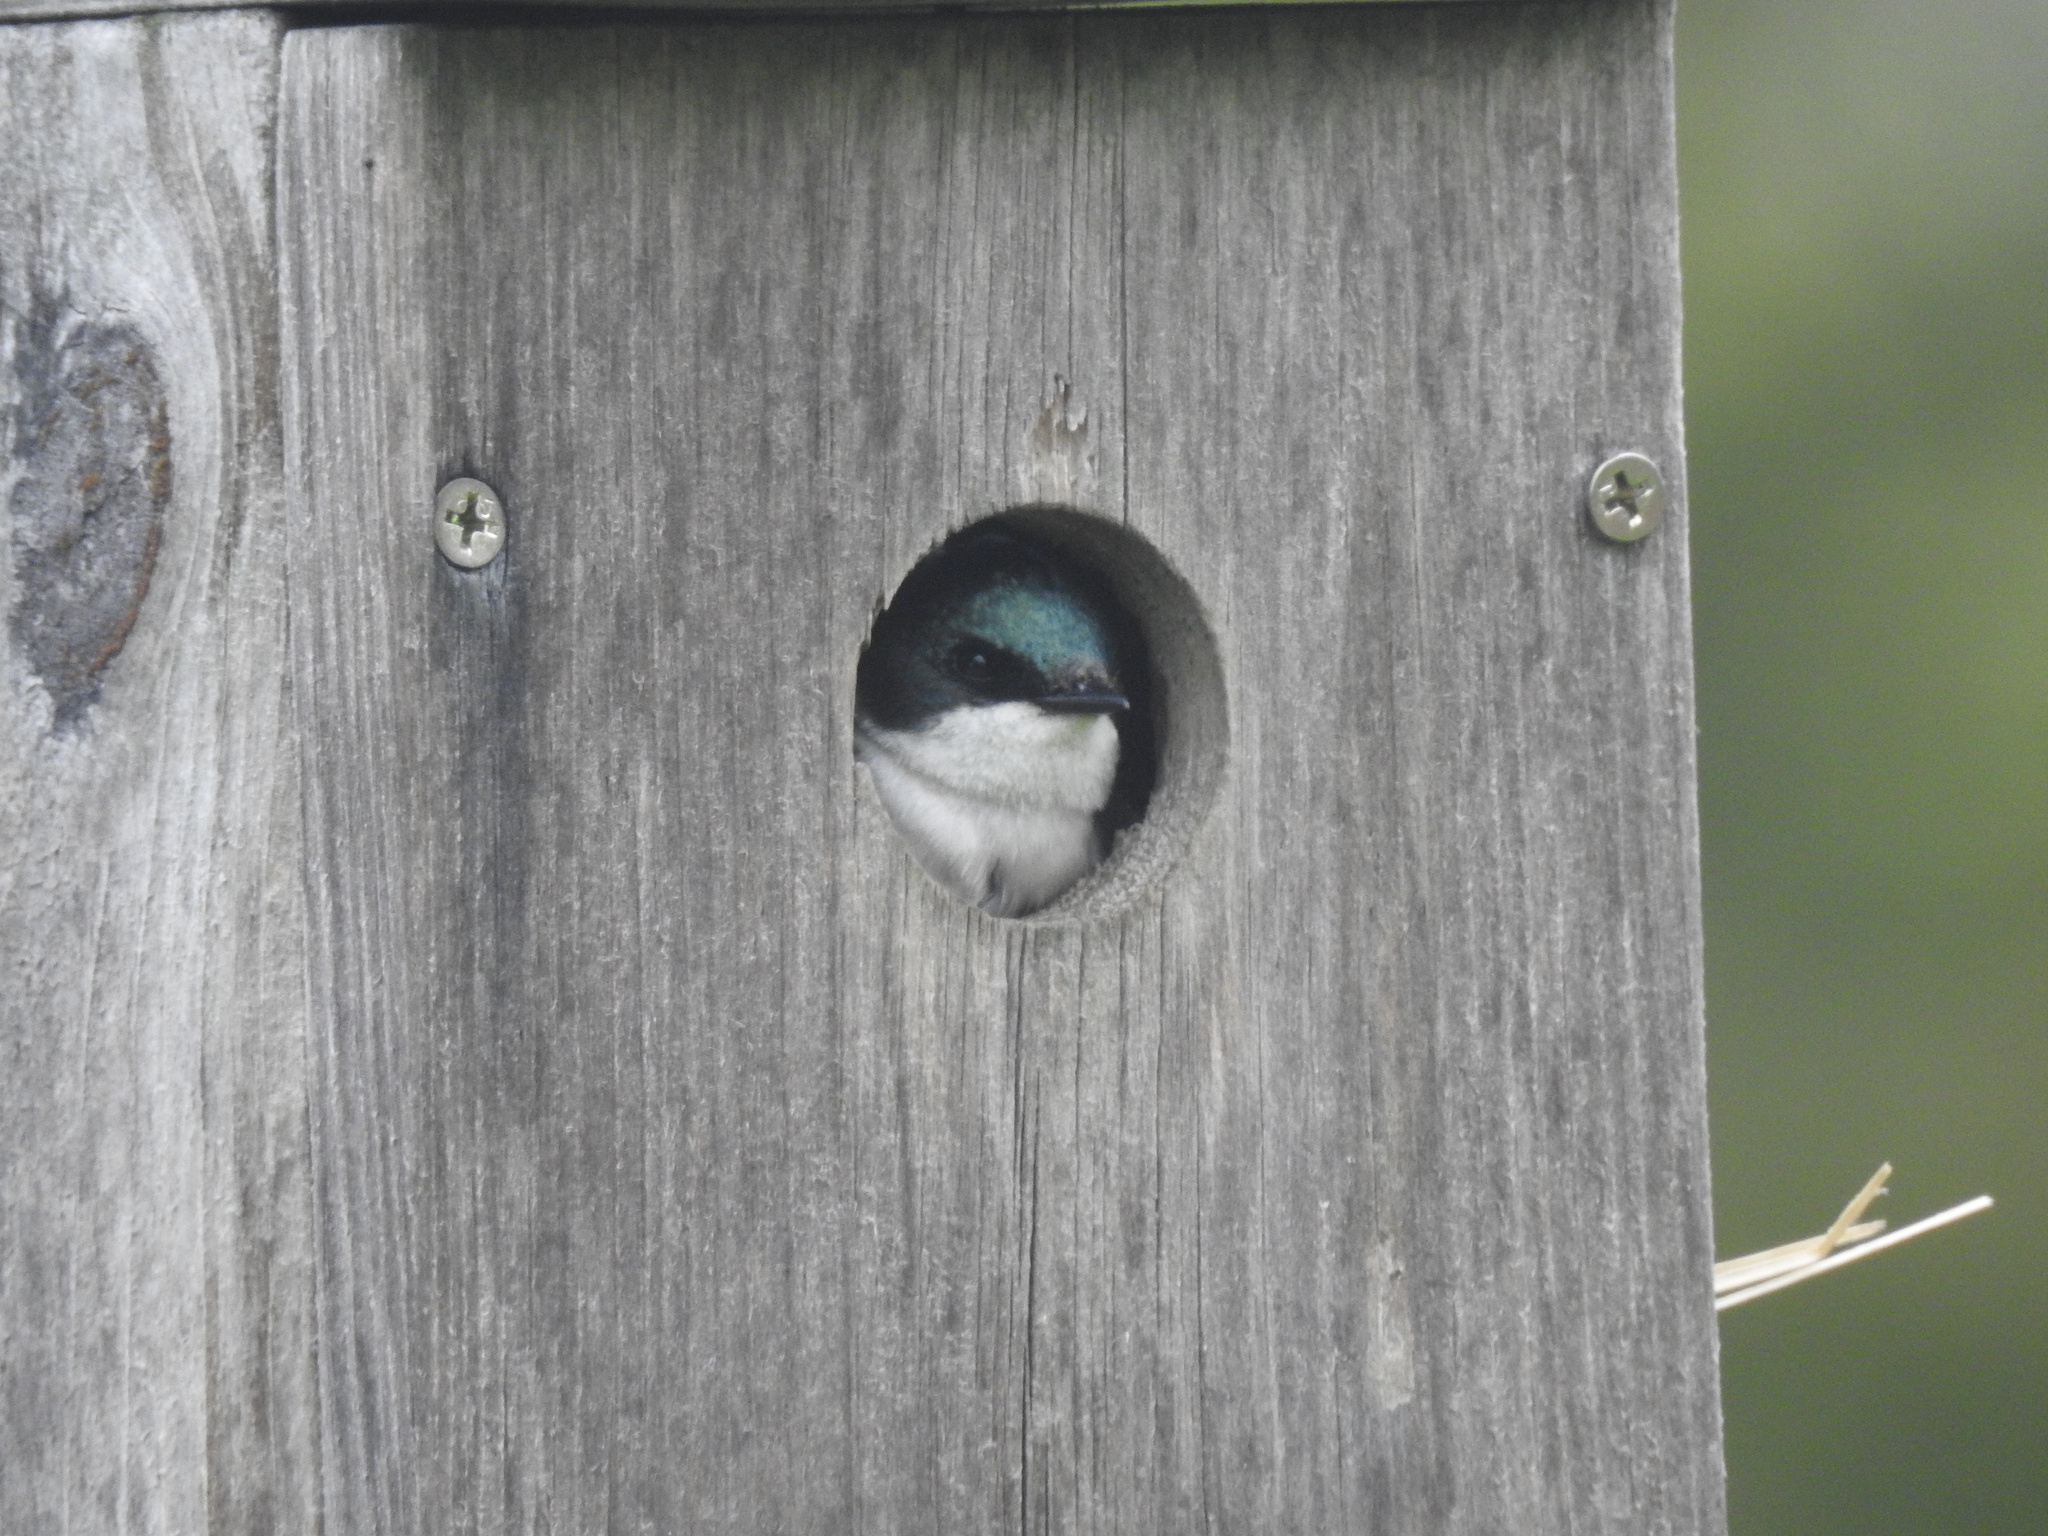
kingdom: Animalia
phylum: Chordata
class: Aves
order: Passeriformes
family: Hirundinidae
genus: Tachycineta
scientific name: Tachycineta bicolor
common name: Tree swallow
